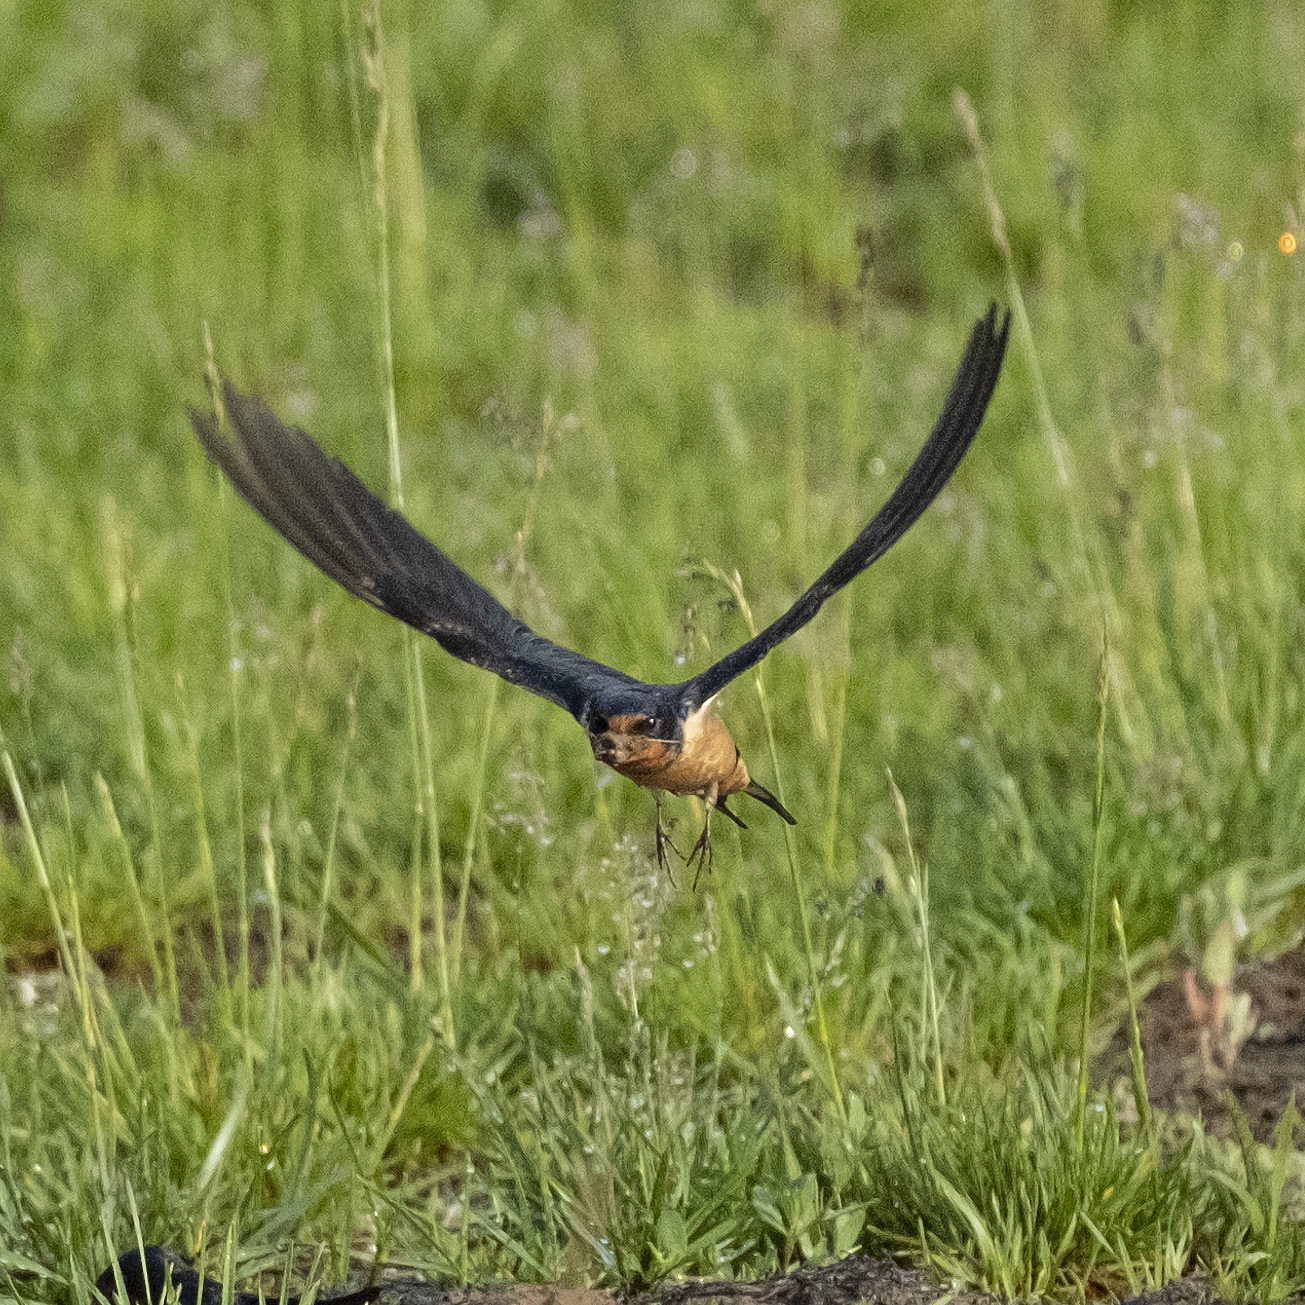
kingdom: Animalia
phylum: Chordata
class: Aves
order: Passeriformes
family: Hirundinidae
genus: Hirundo
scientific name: Hirundo rustica
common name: Barn swallow
